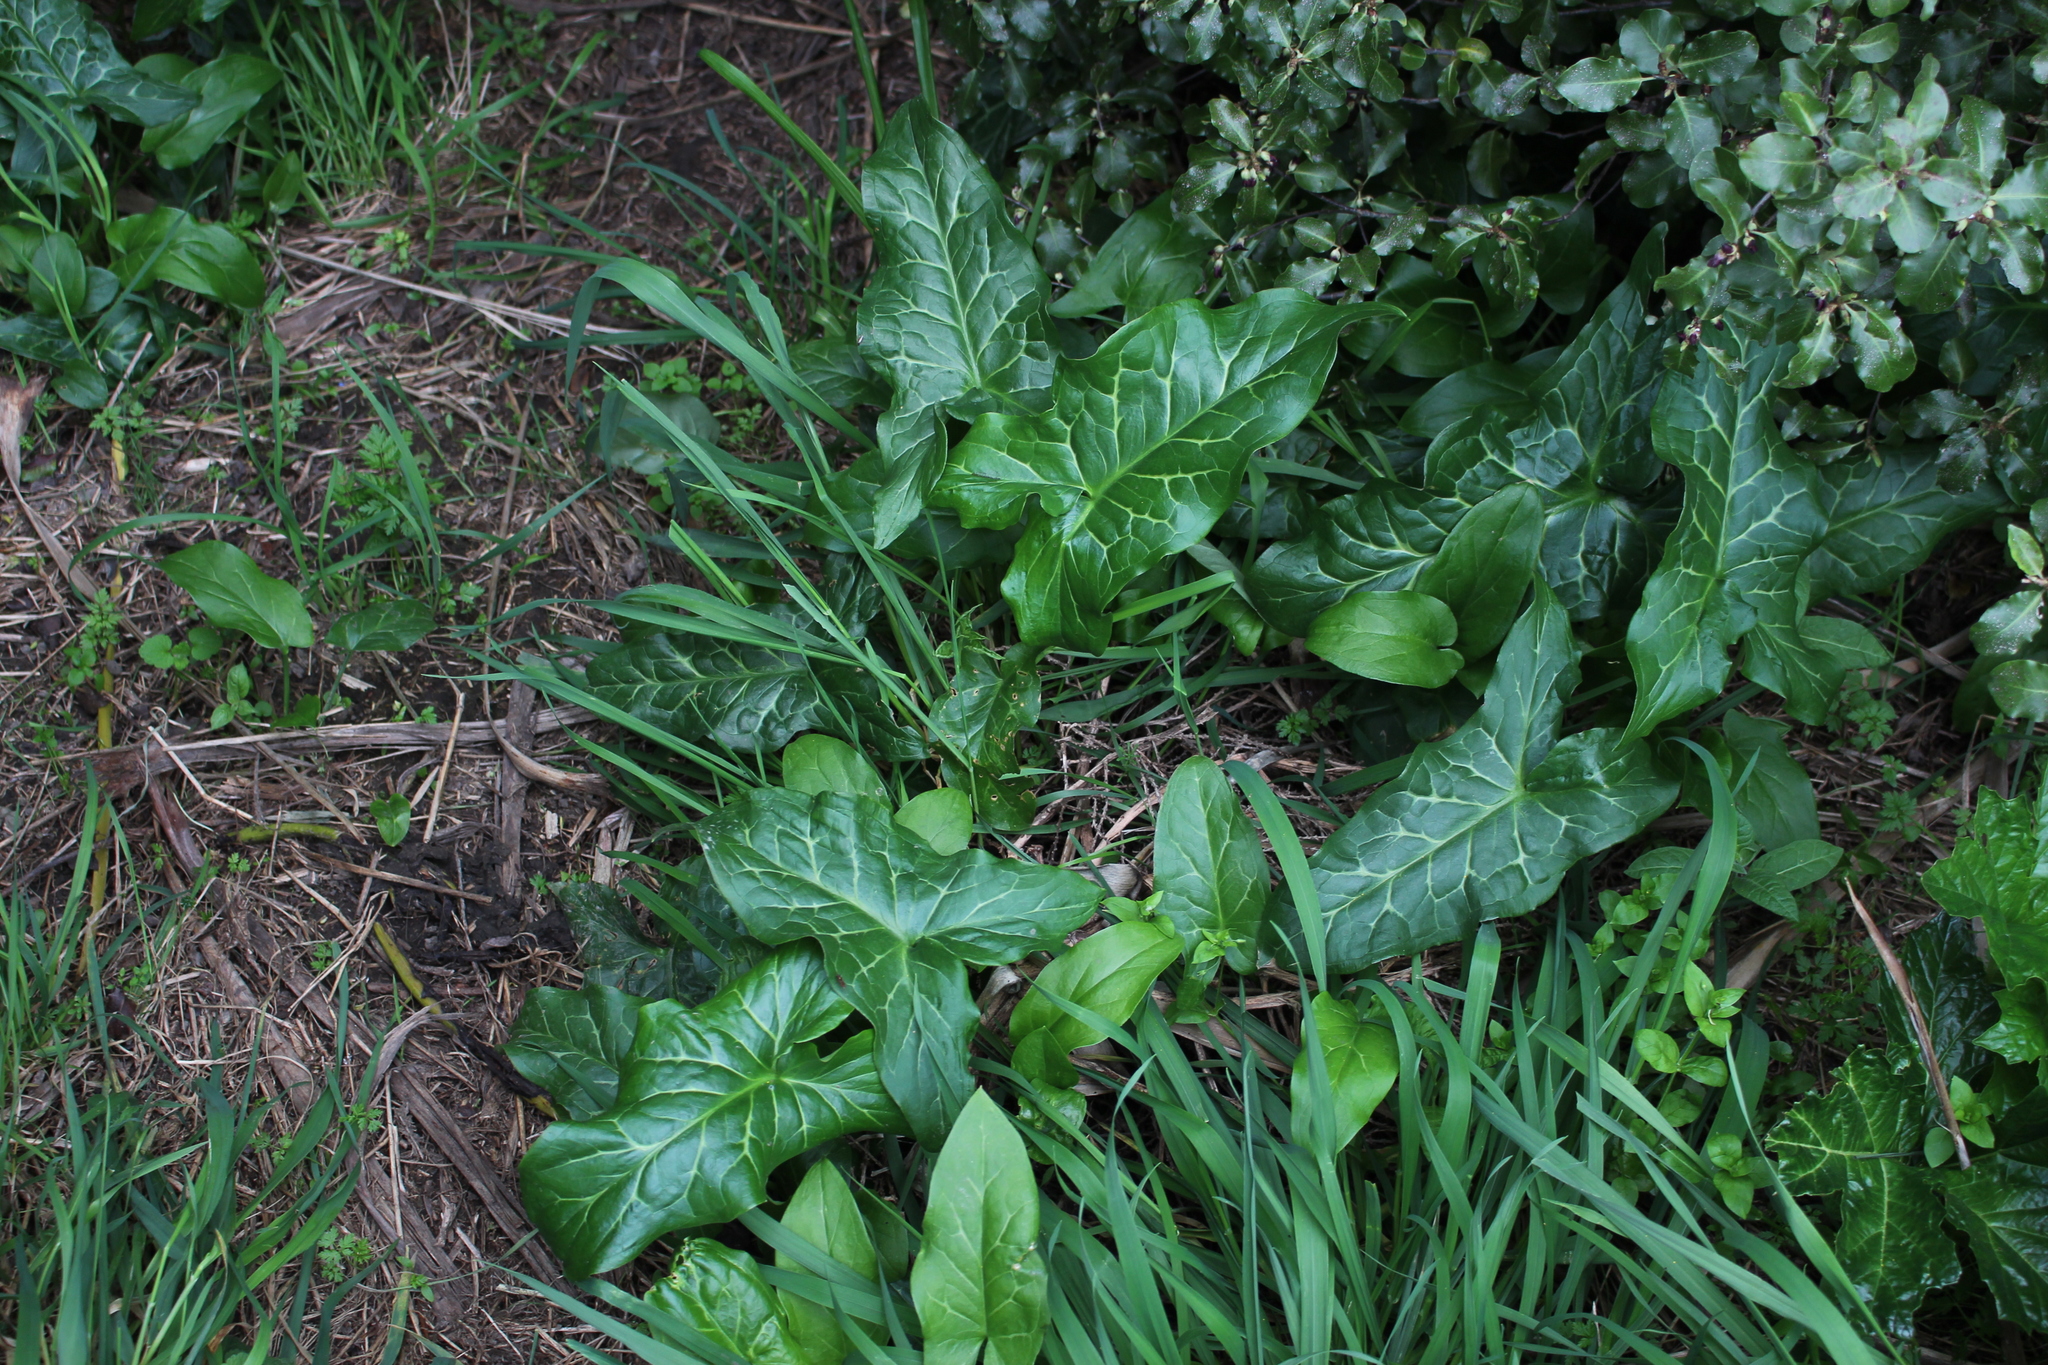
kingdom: Plantae
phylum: Tracheophyta
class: Liliopsida
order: Alismatales
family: Araceae
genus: Arum
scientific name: Arum italicum
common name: Italian lords-and-ladies
